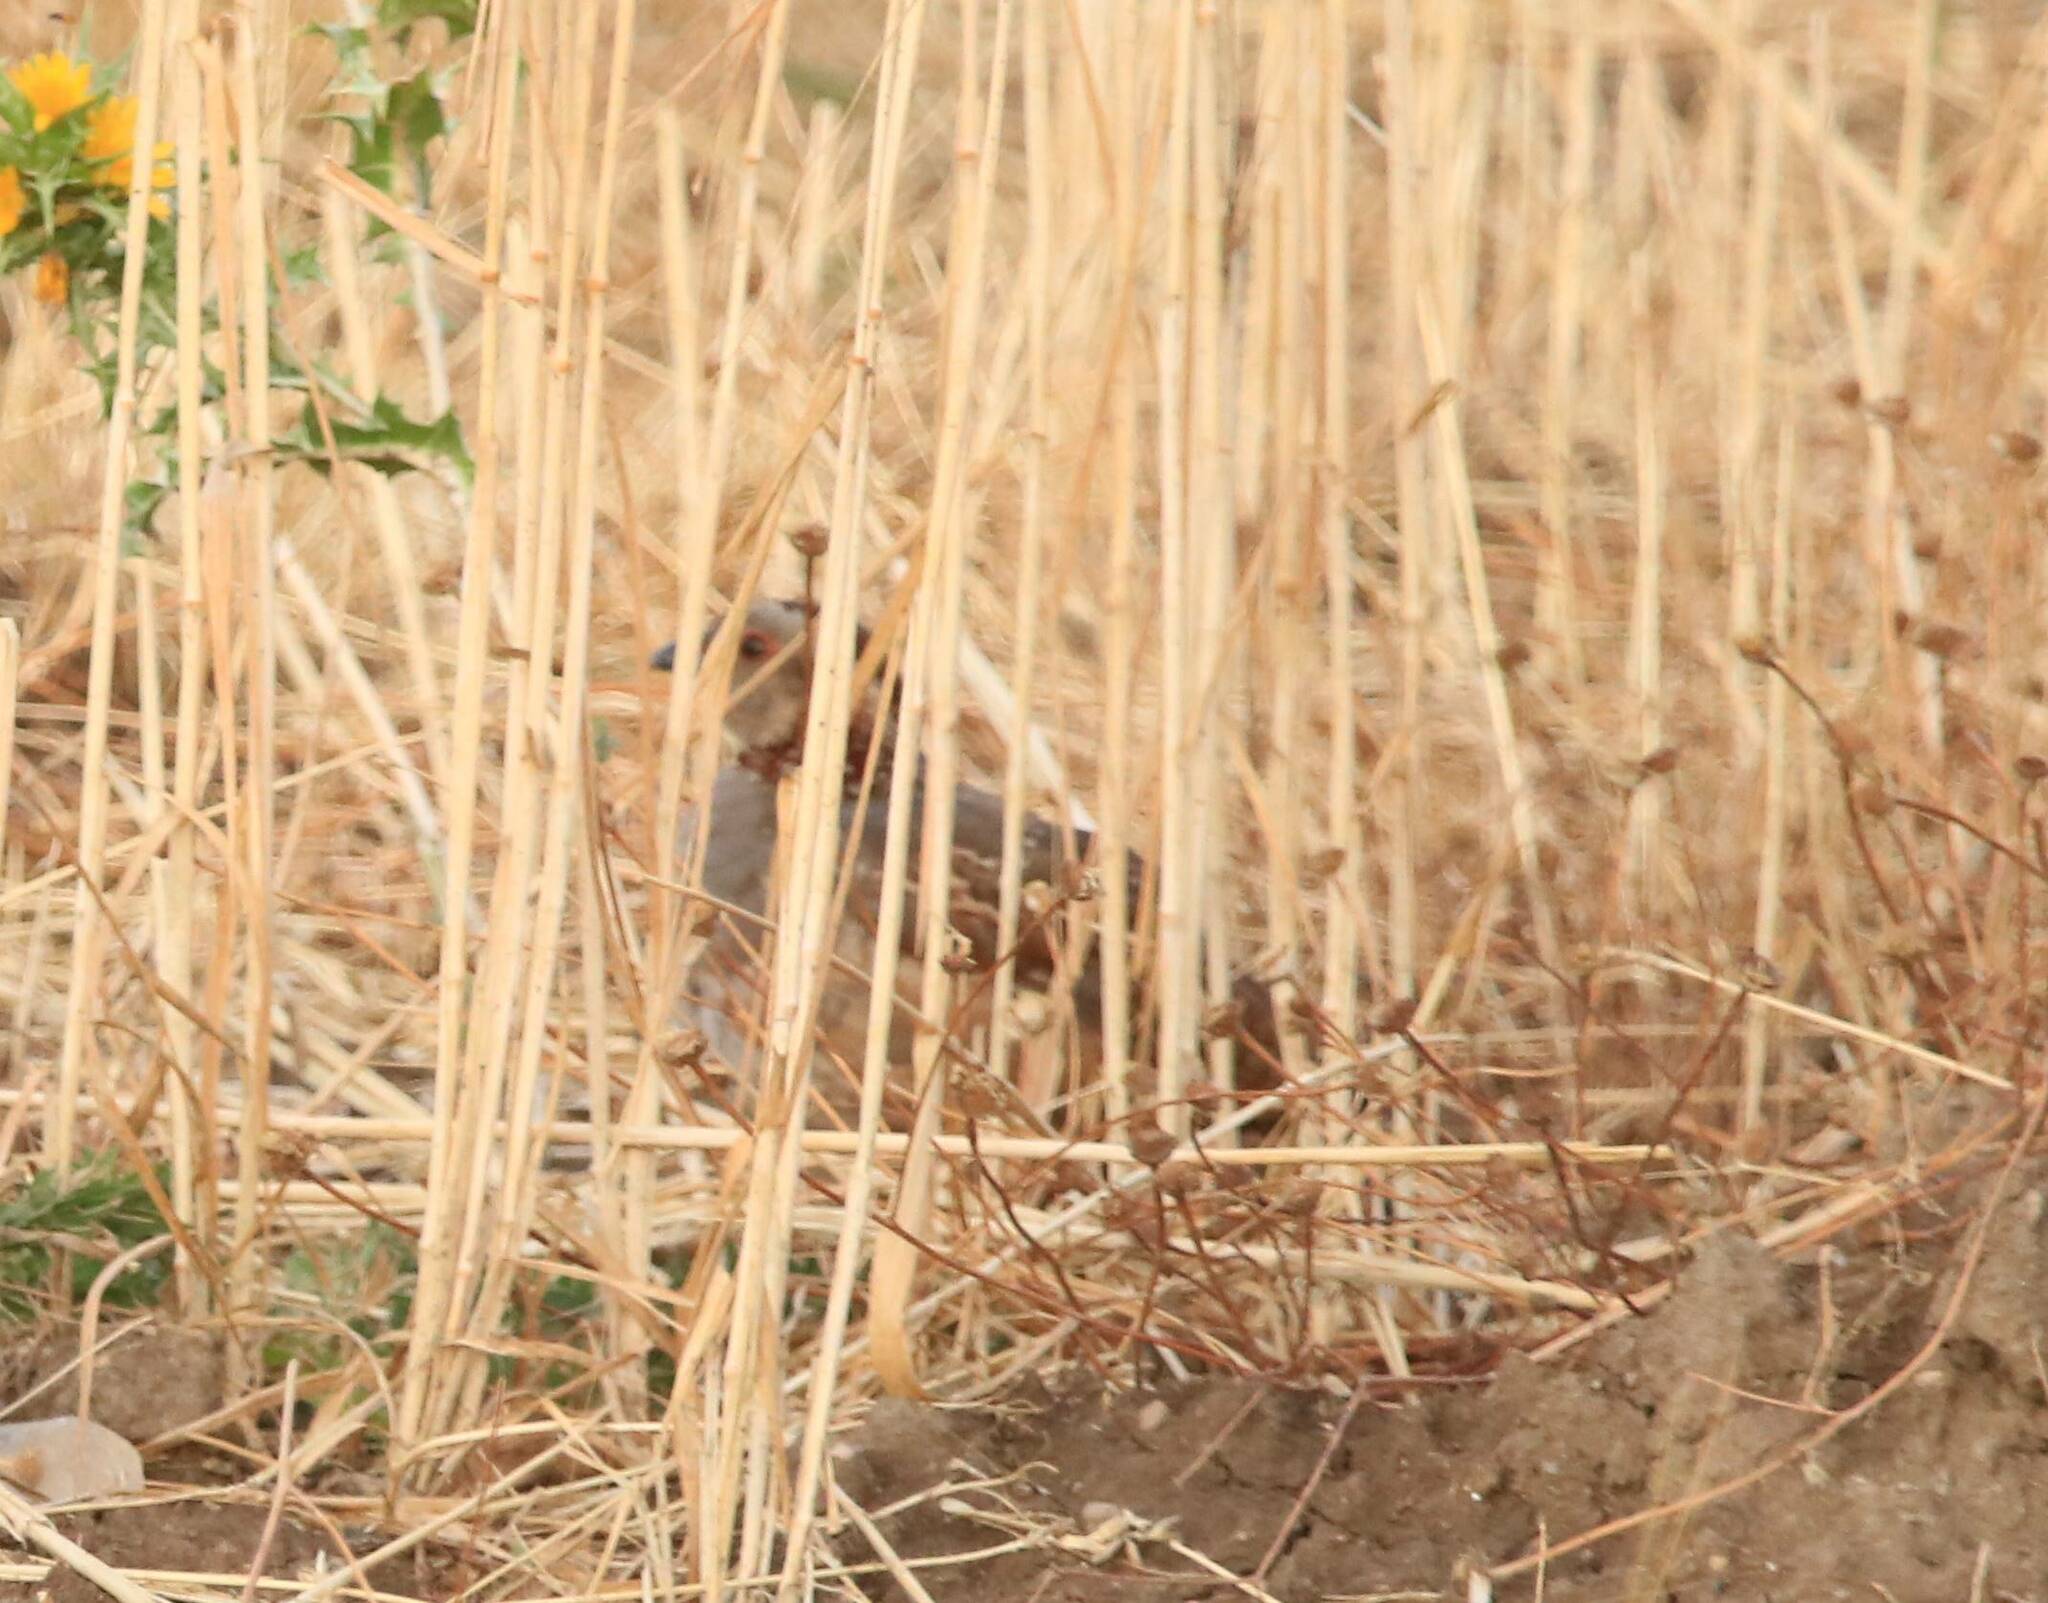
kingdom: Animalia
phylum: Chordata
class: Aves
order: Galliformes
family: Phasianidae
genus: Alectoris
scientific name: Alectoris barbara
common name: Barbary partridge
